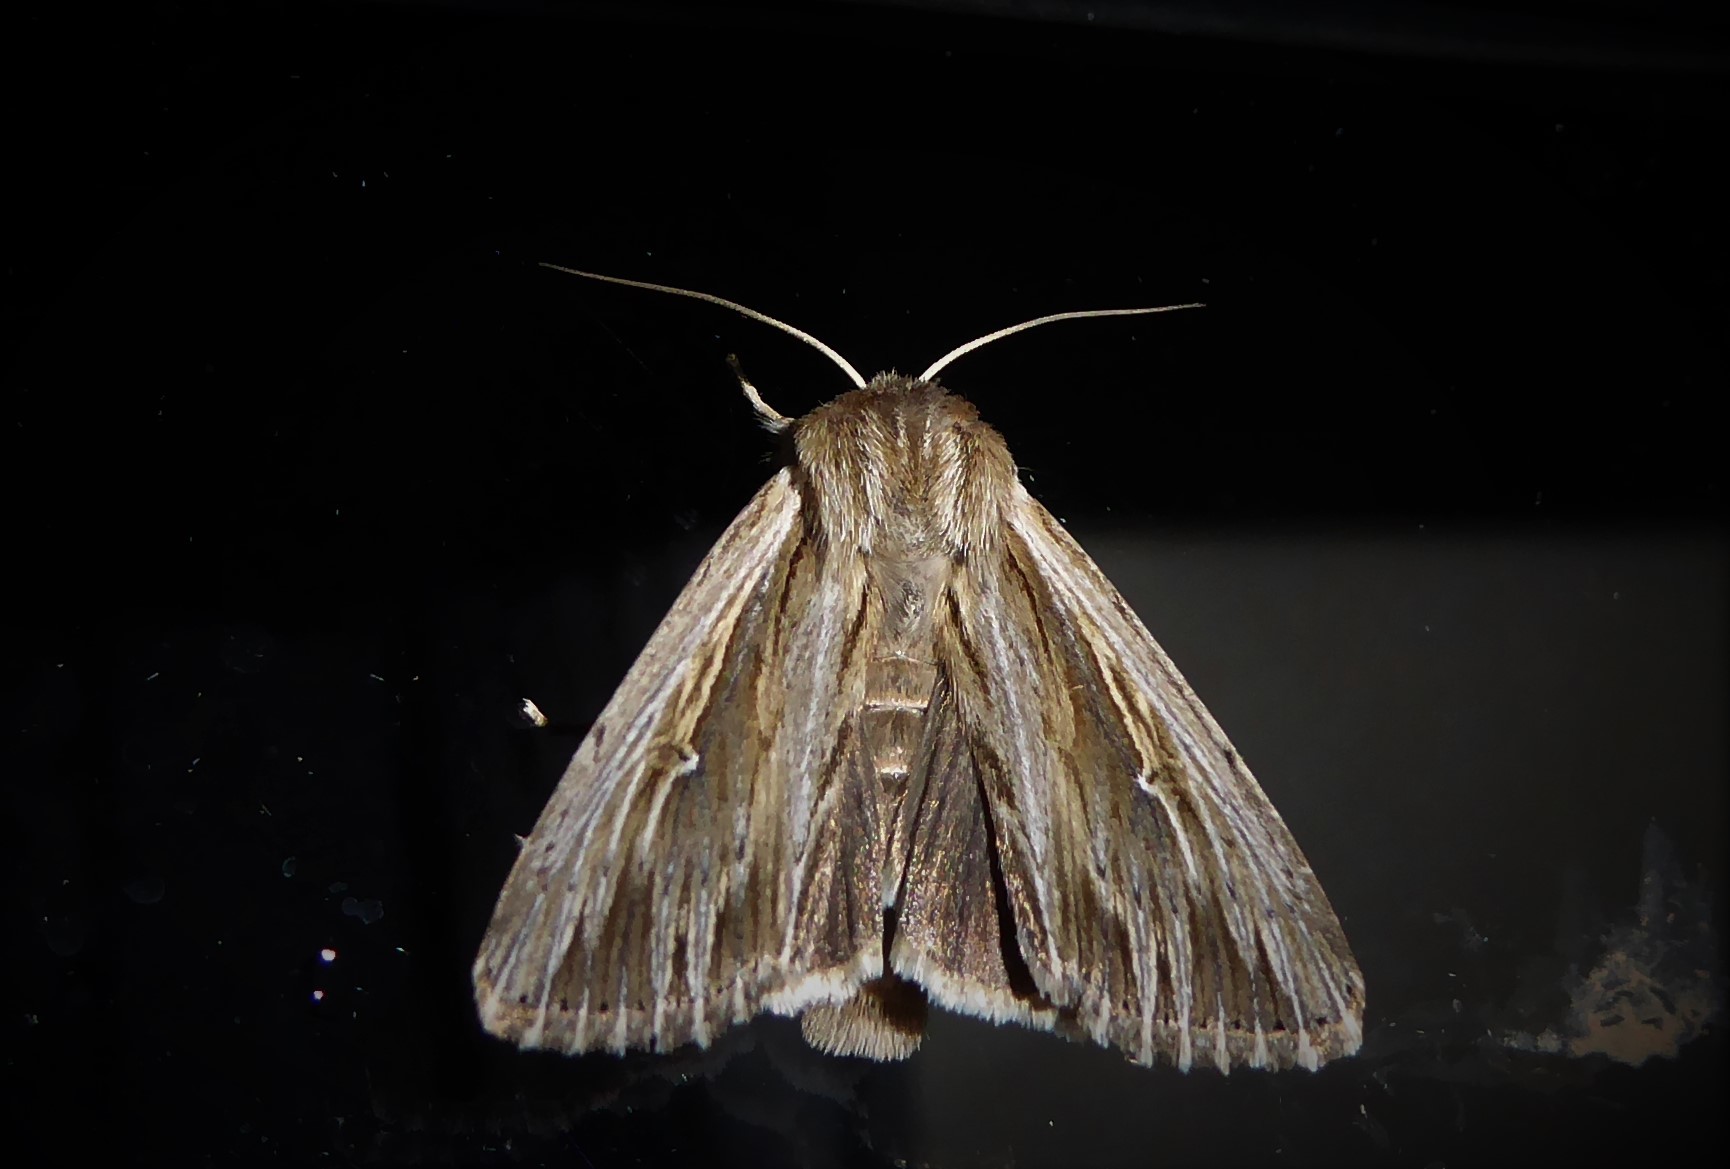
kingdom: Animalia
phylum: Arthropoda
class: Insecta
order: Lepidoptera
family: Noctuidae
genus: Persectania
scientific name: Persectania aversa
